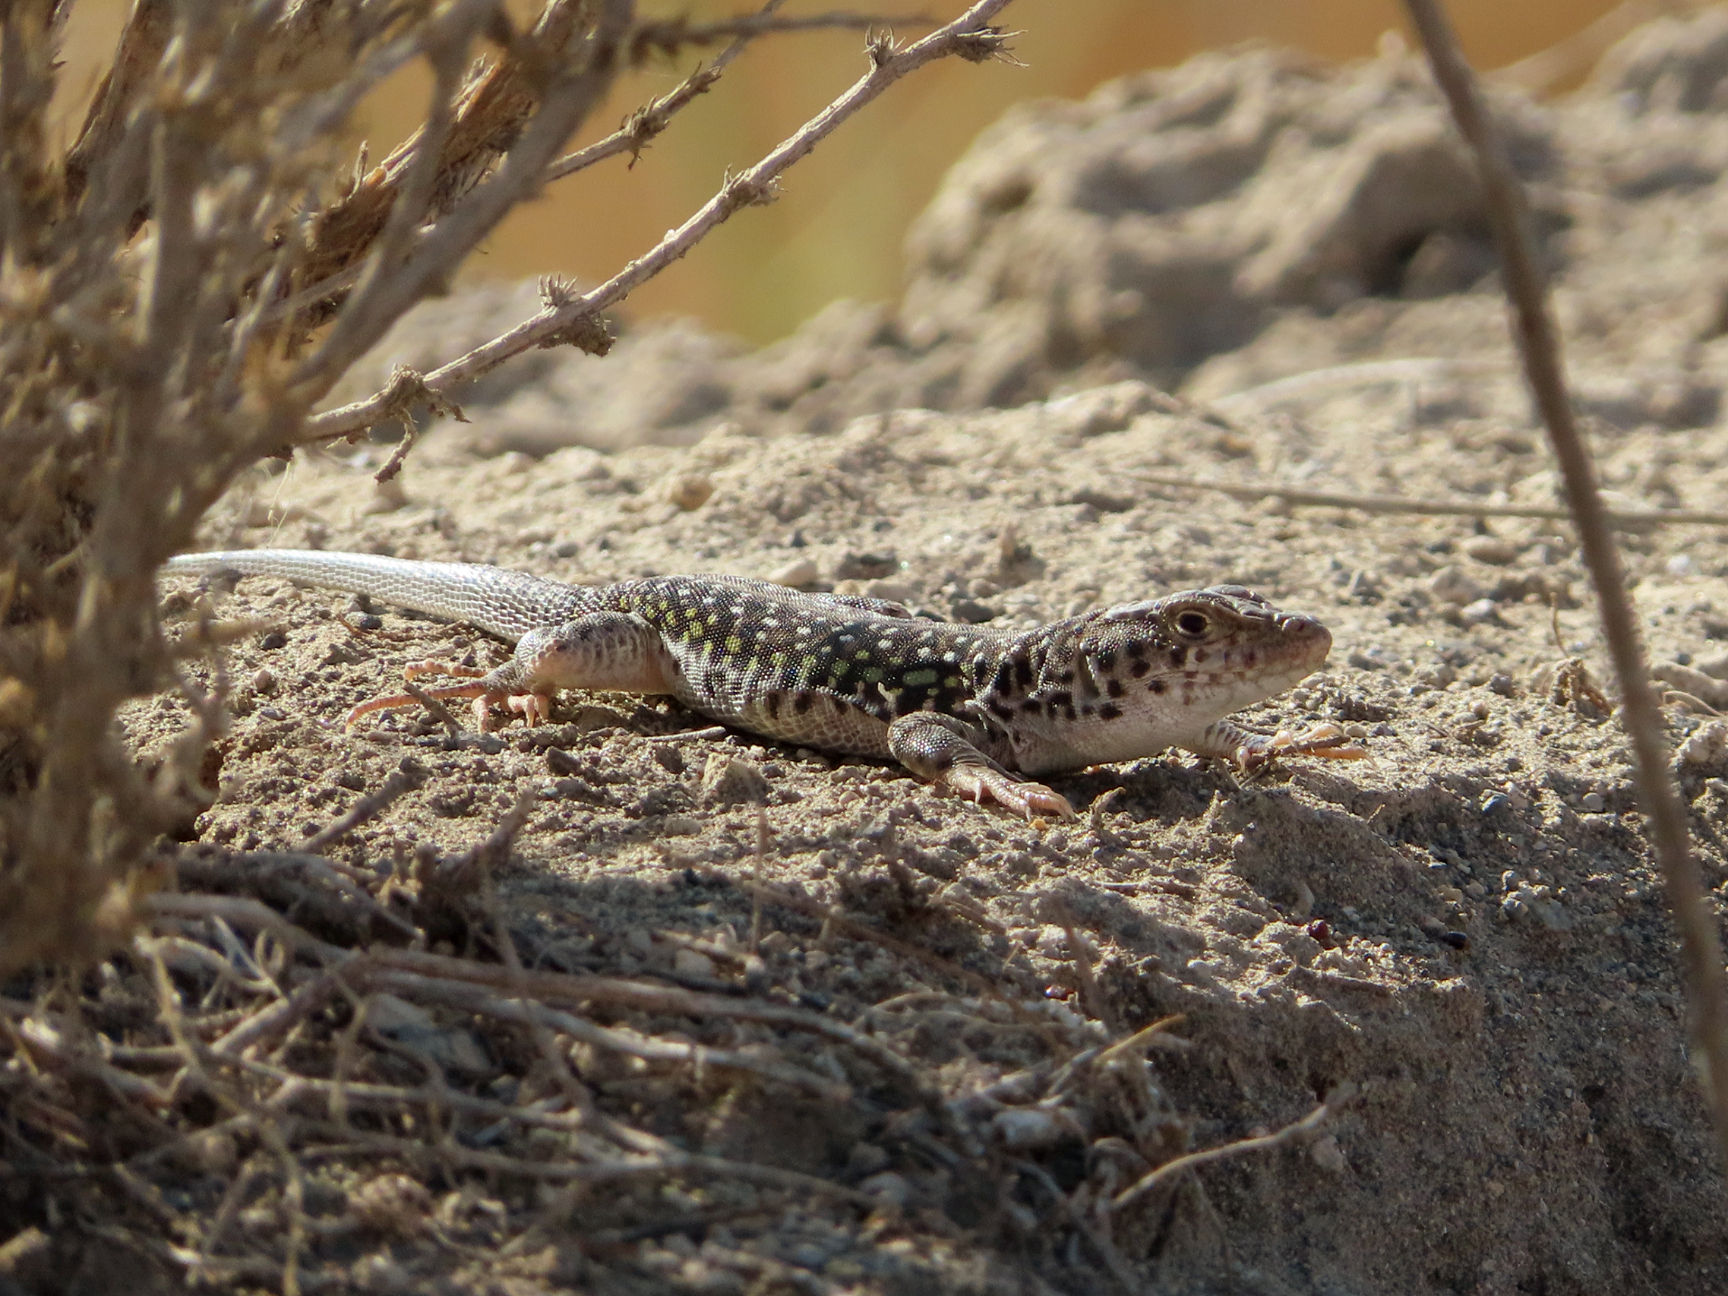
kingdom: Animalia
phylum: Chordata
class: Squamata
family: Lacertidae
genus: Eremias
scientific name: Eremias strauchi
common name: Strauch's racerunner
